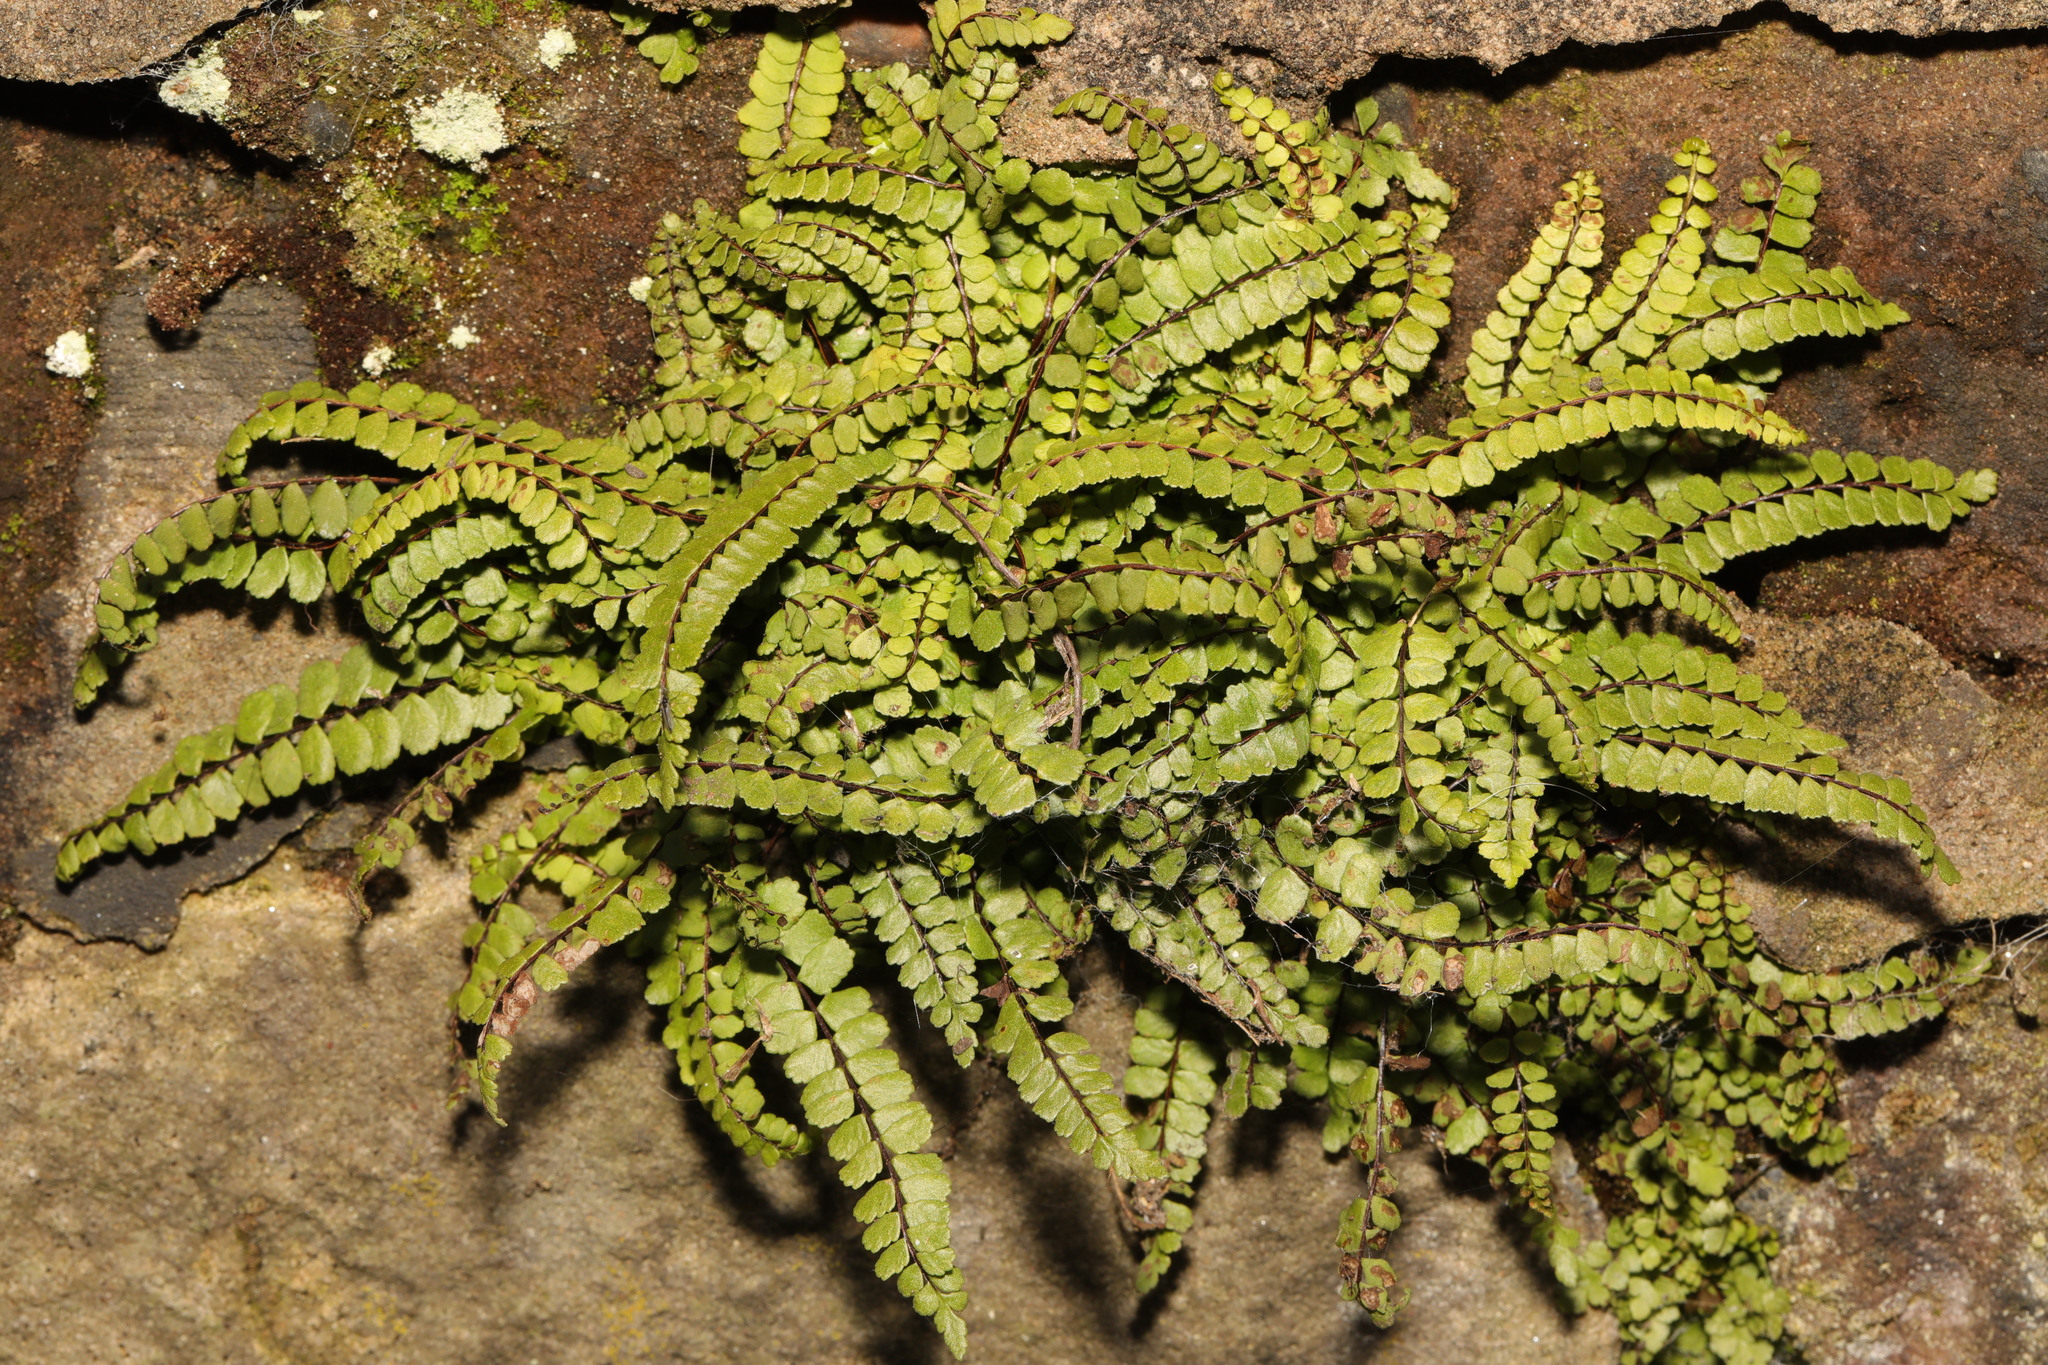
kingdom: Plantae
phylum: Tracheophyta
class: Polypodiopsida
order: Polypodiales
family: Aspleniaceae
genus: Asplenium
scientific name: Asplenium trichomanes
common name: Maidenhair spleenwort
